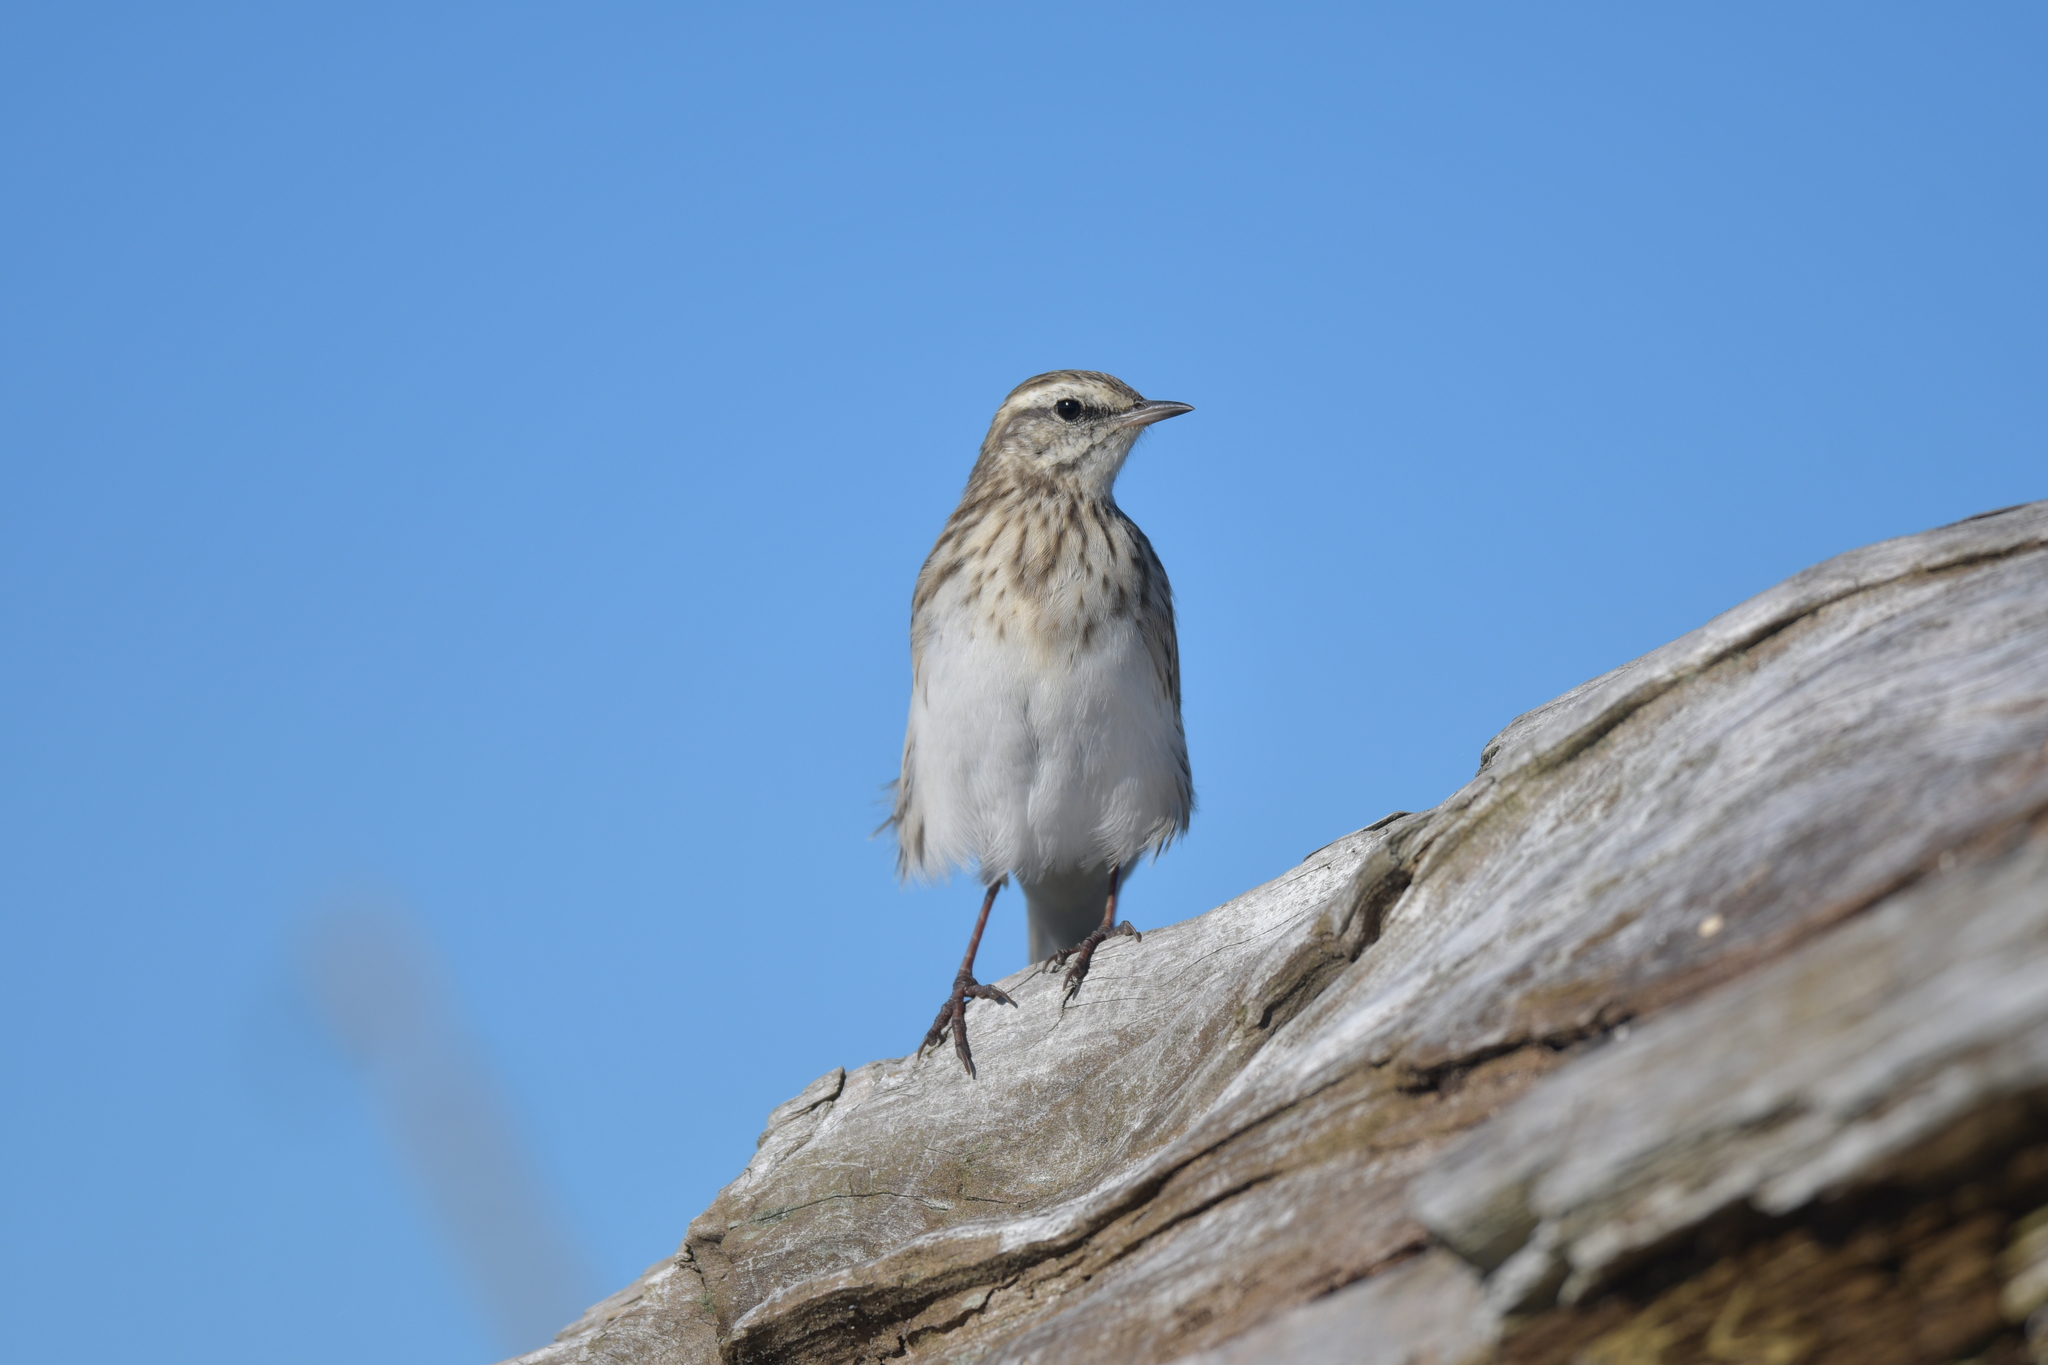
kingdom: Animalia
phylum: Chordata
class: Aves
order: Passeriformes
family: Motacillidae
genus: Anthus
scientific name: Anthus novaeseelandiae
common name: New zealand pipit
